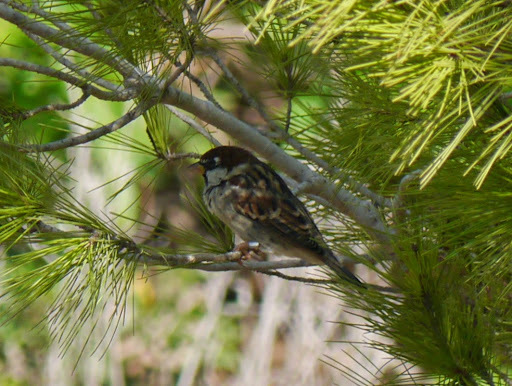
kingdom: Animalia
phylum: Chordata
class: Aves
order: Passeriformes
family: Passeridae
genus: Passer
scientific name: Passer hispaniolensis
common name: Spanish sparrow
